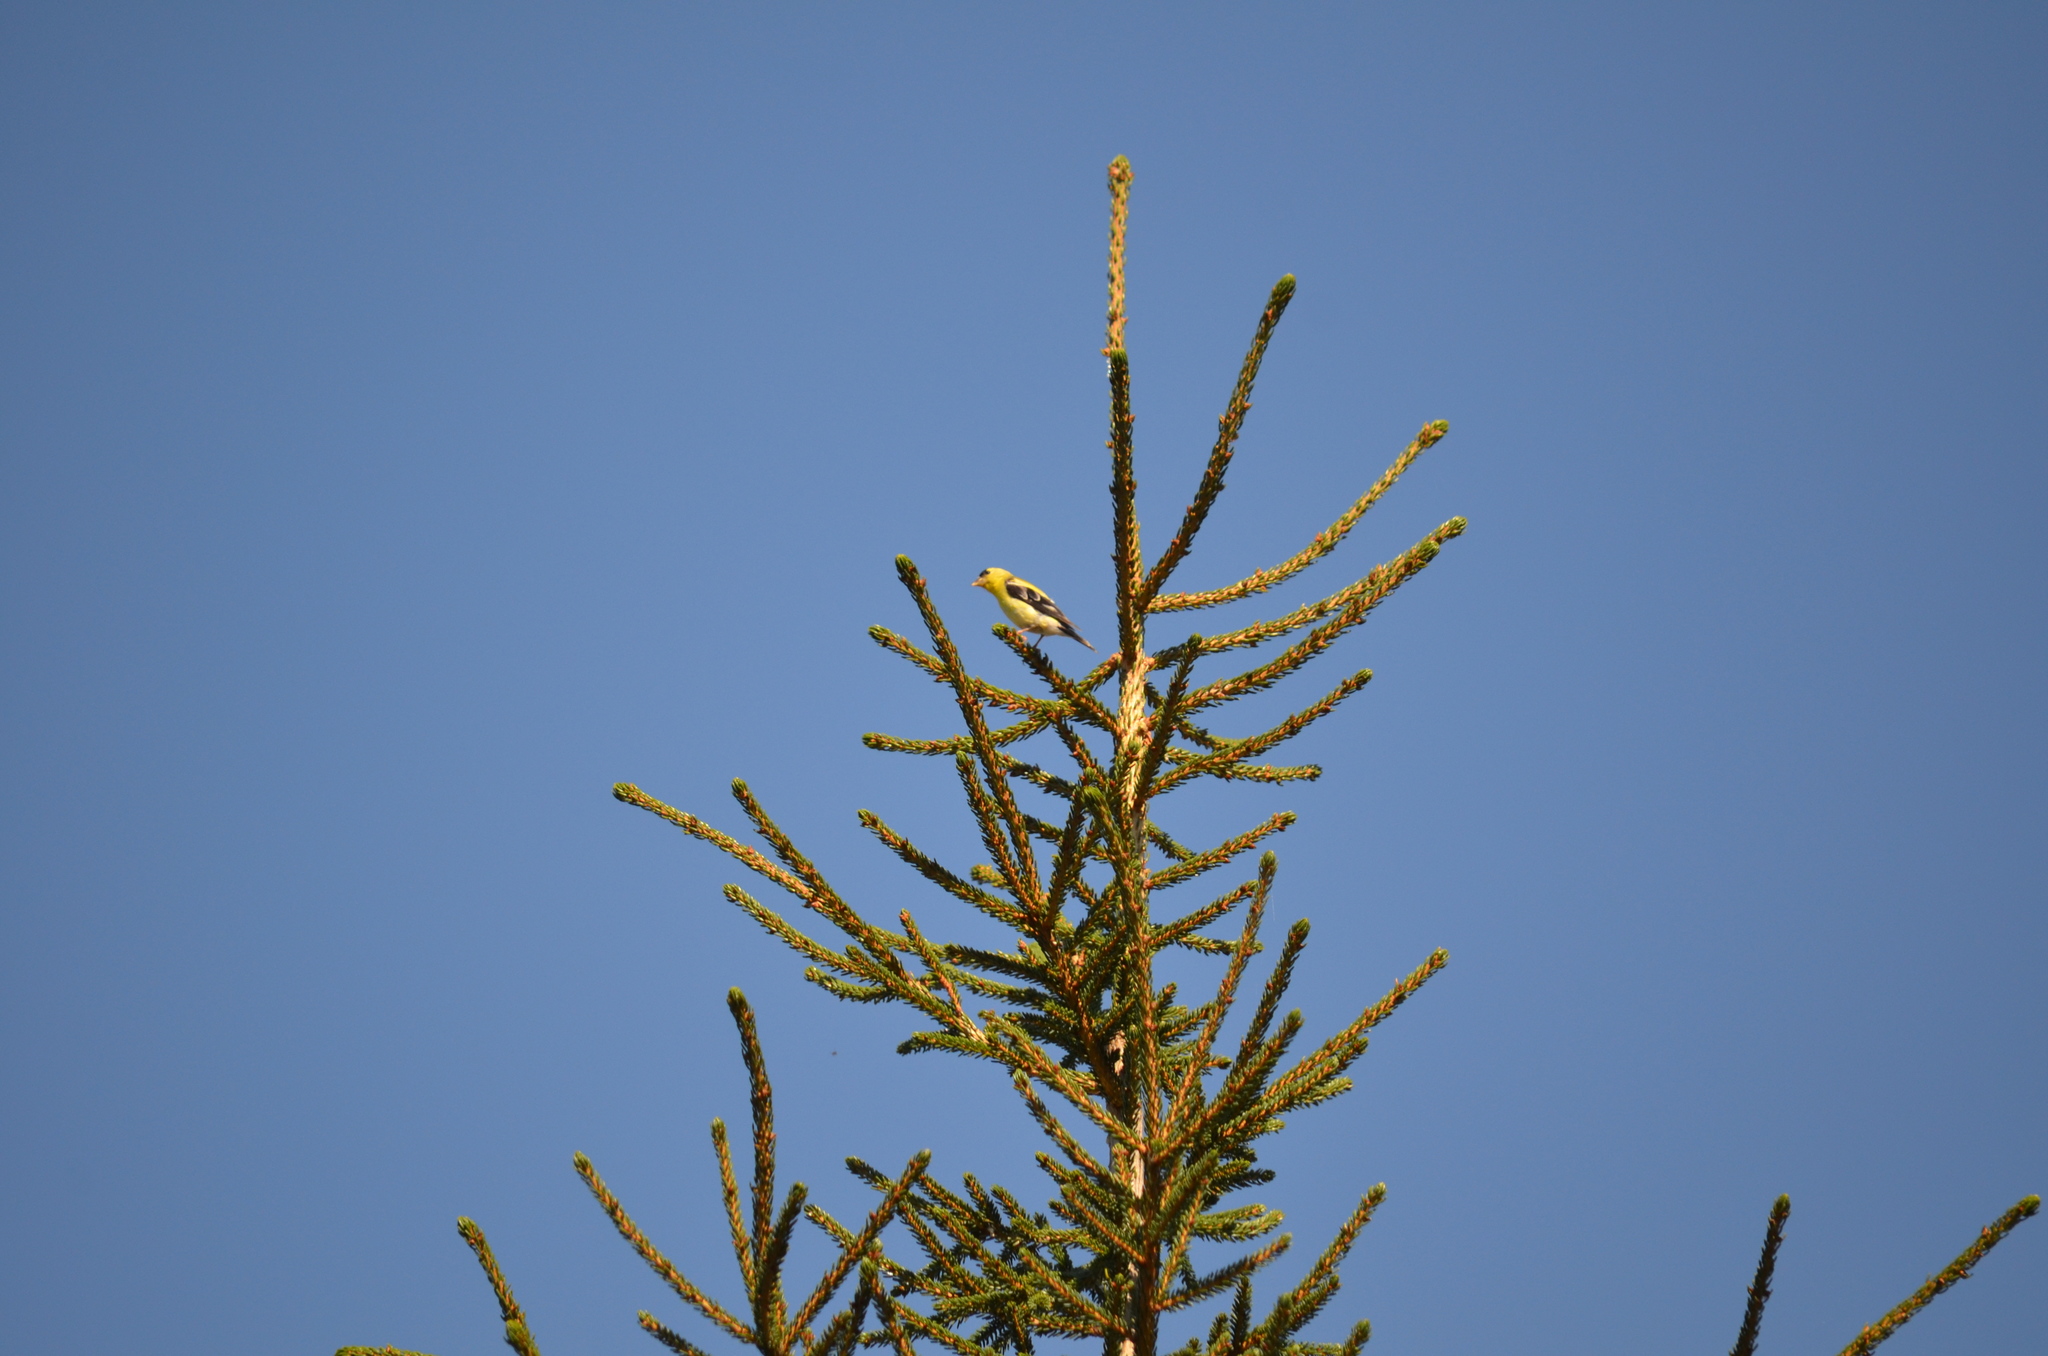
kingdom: Animalia
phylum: Chordata
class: Aves
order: Passeriformes
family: Fringillidae
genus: Spinus
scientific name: Spinus tristis
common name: American goldfinch
